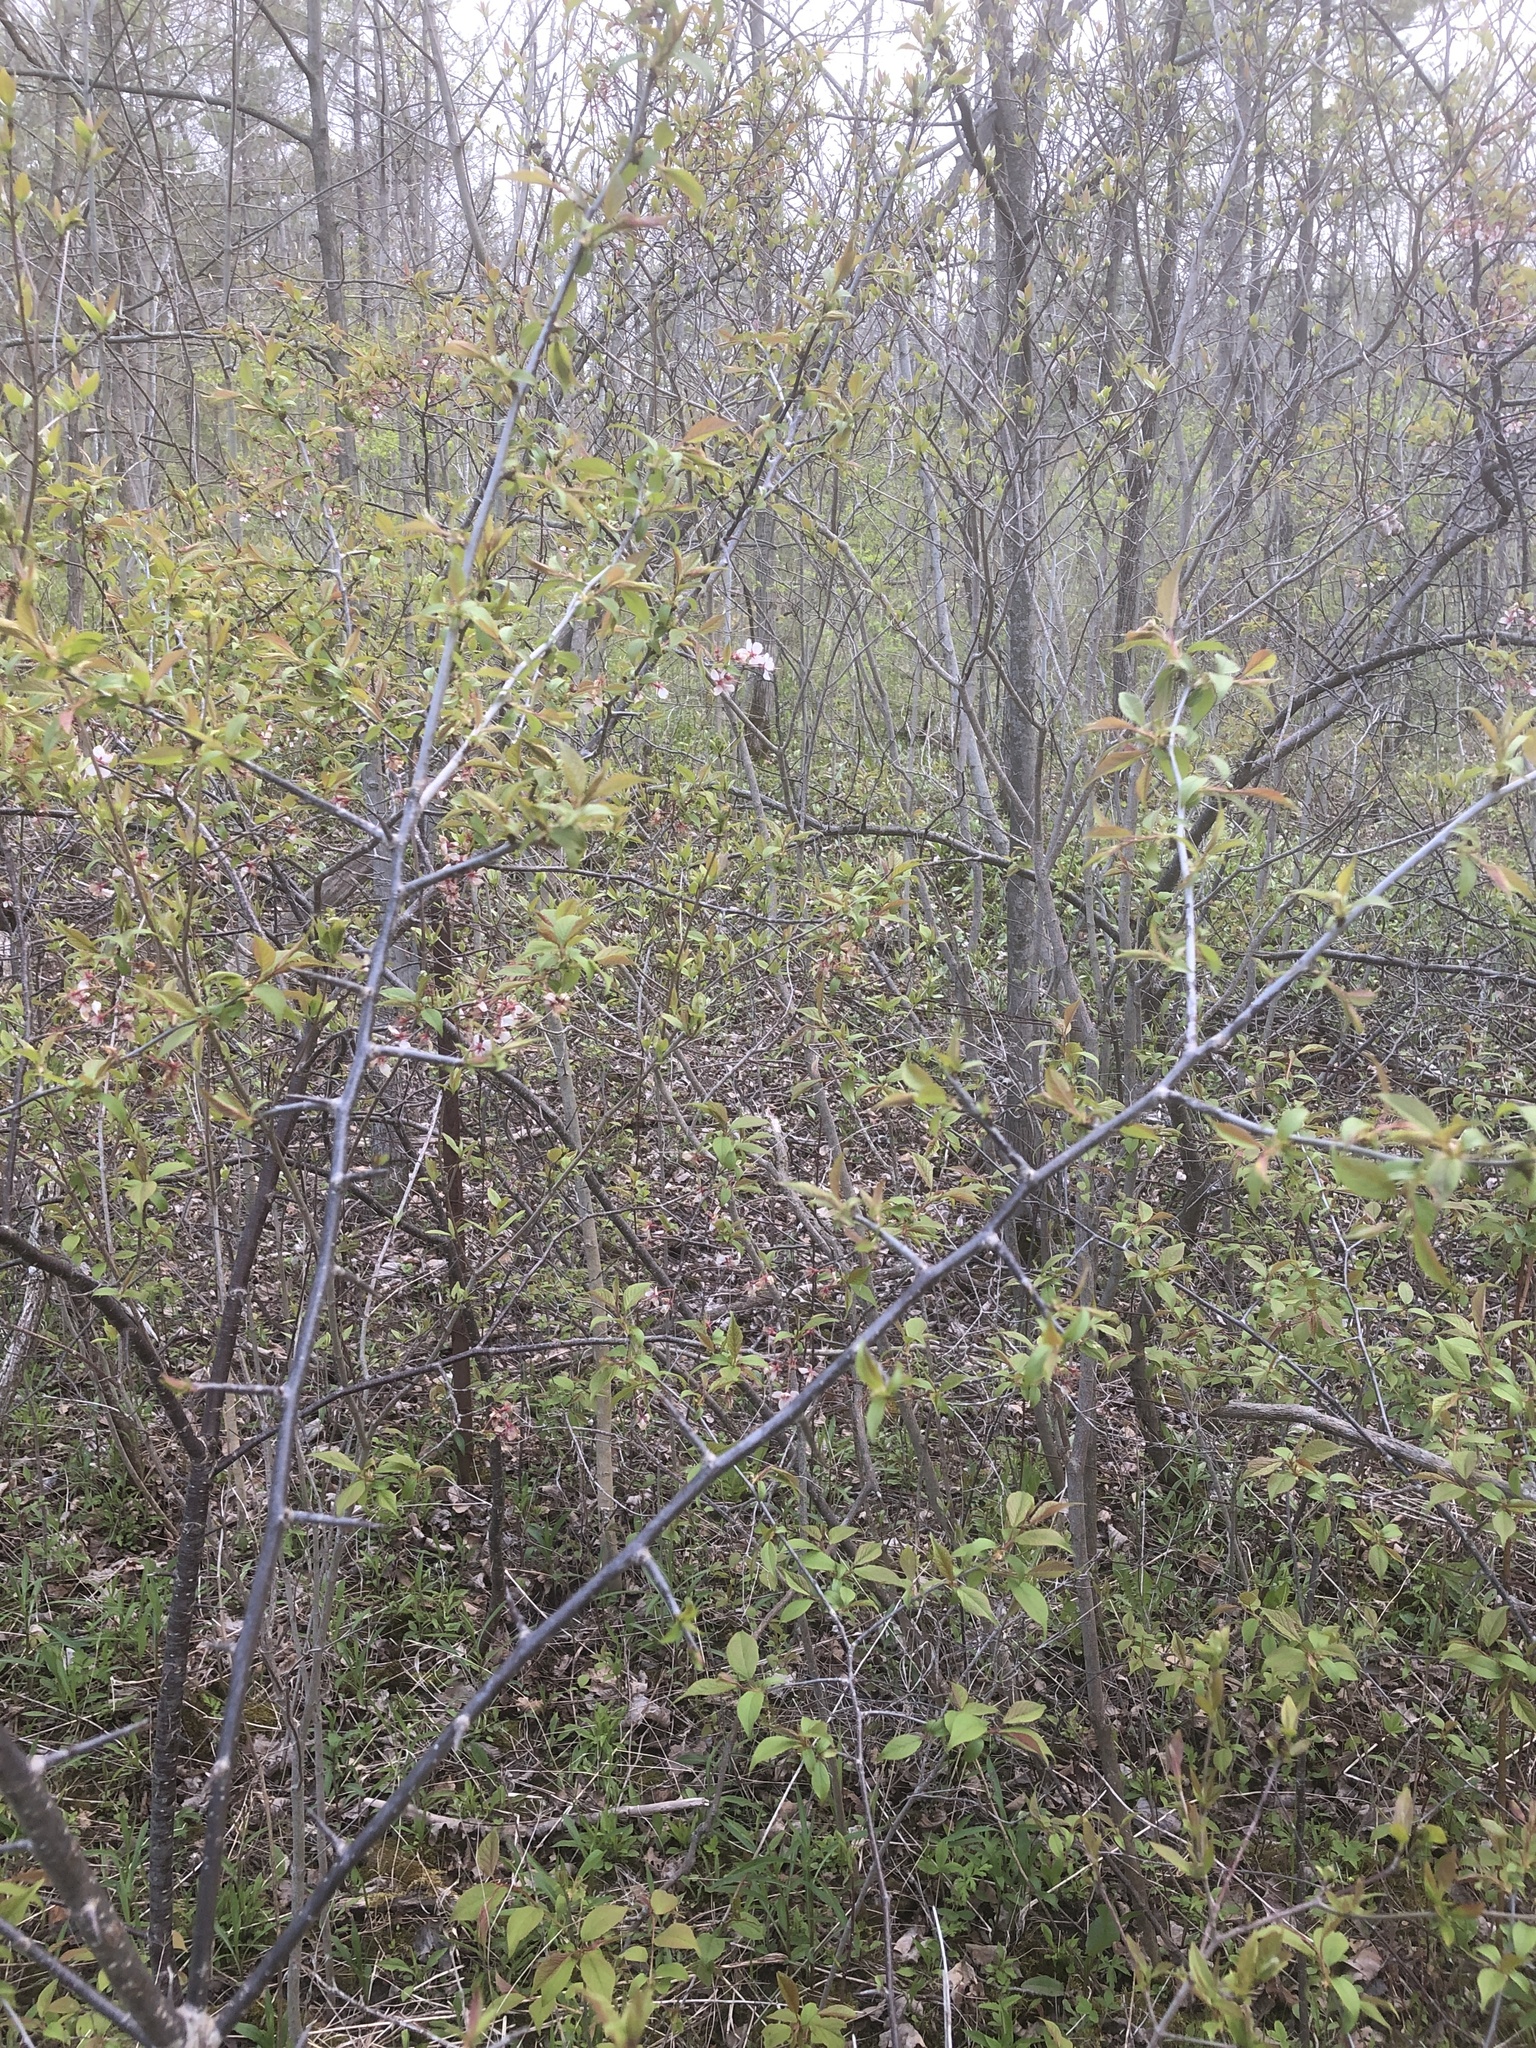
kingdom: Plantae
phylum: Tracheophyta
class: Magnoliopsida
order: Rosales
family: Rosaceae
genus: Prunus
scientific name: Prunus nigra
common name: Black plum
